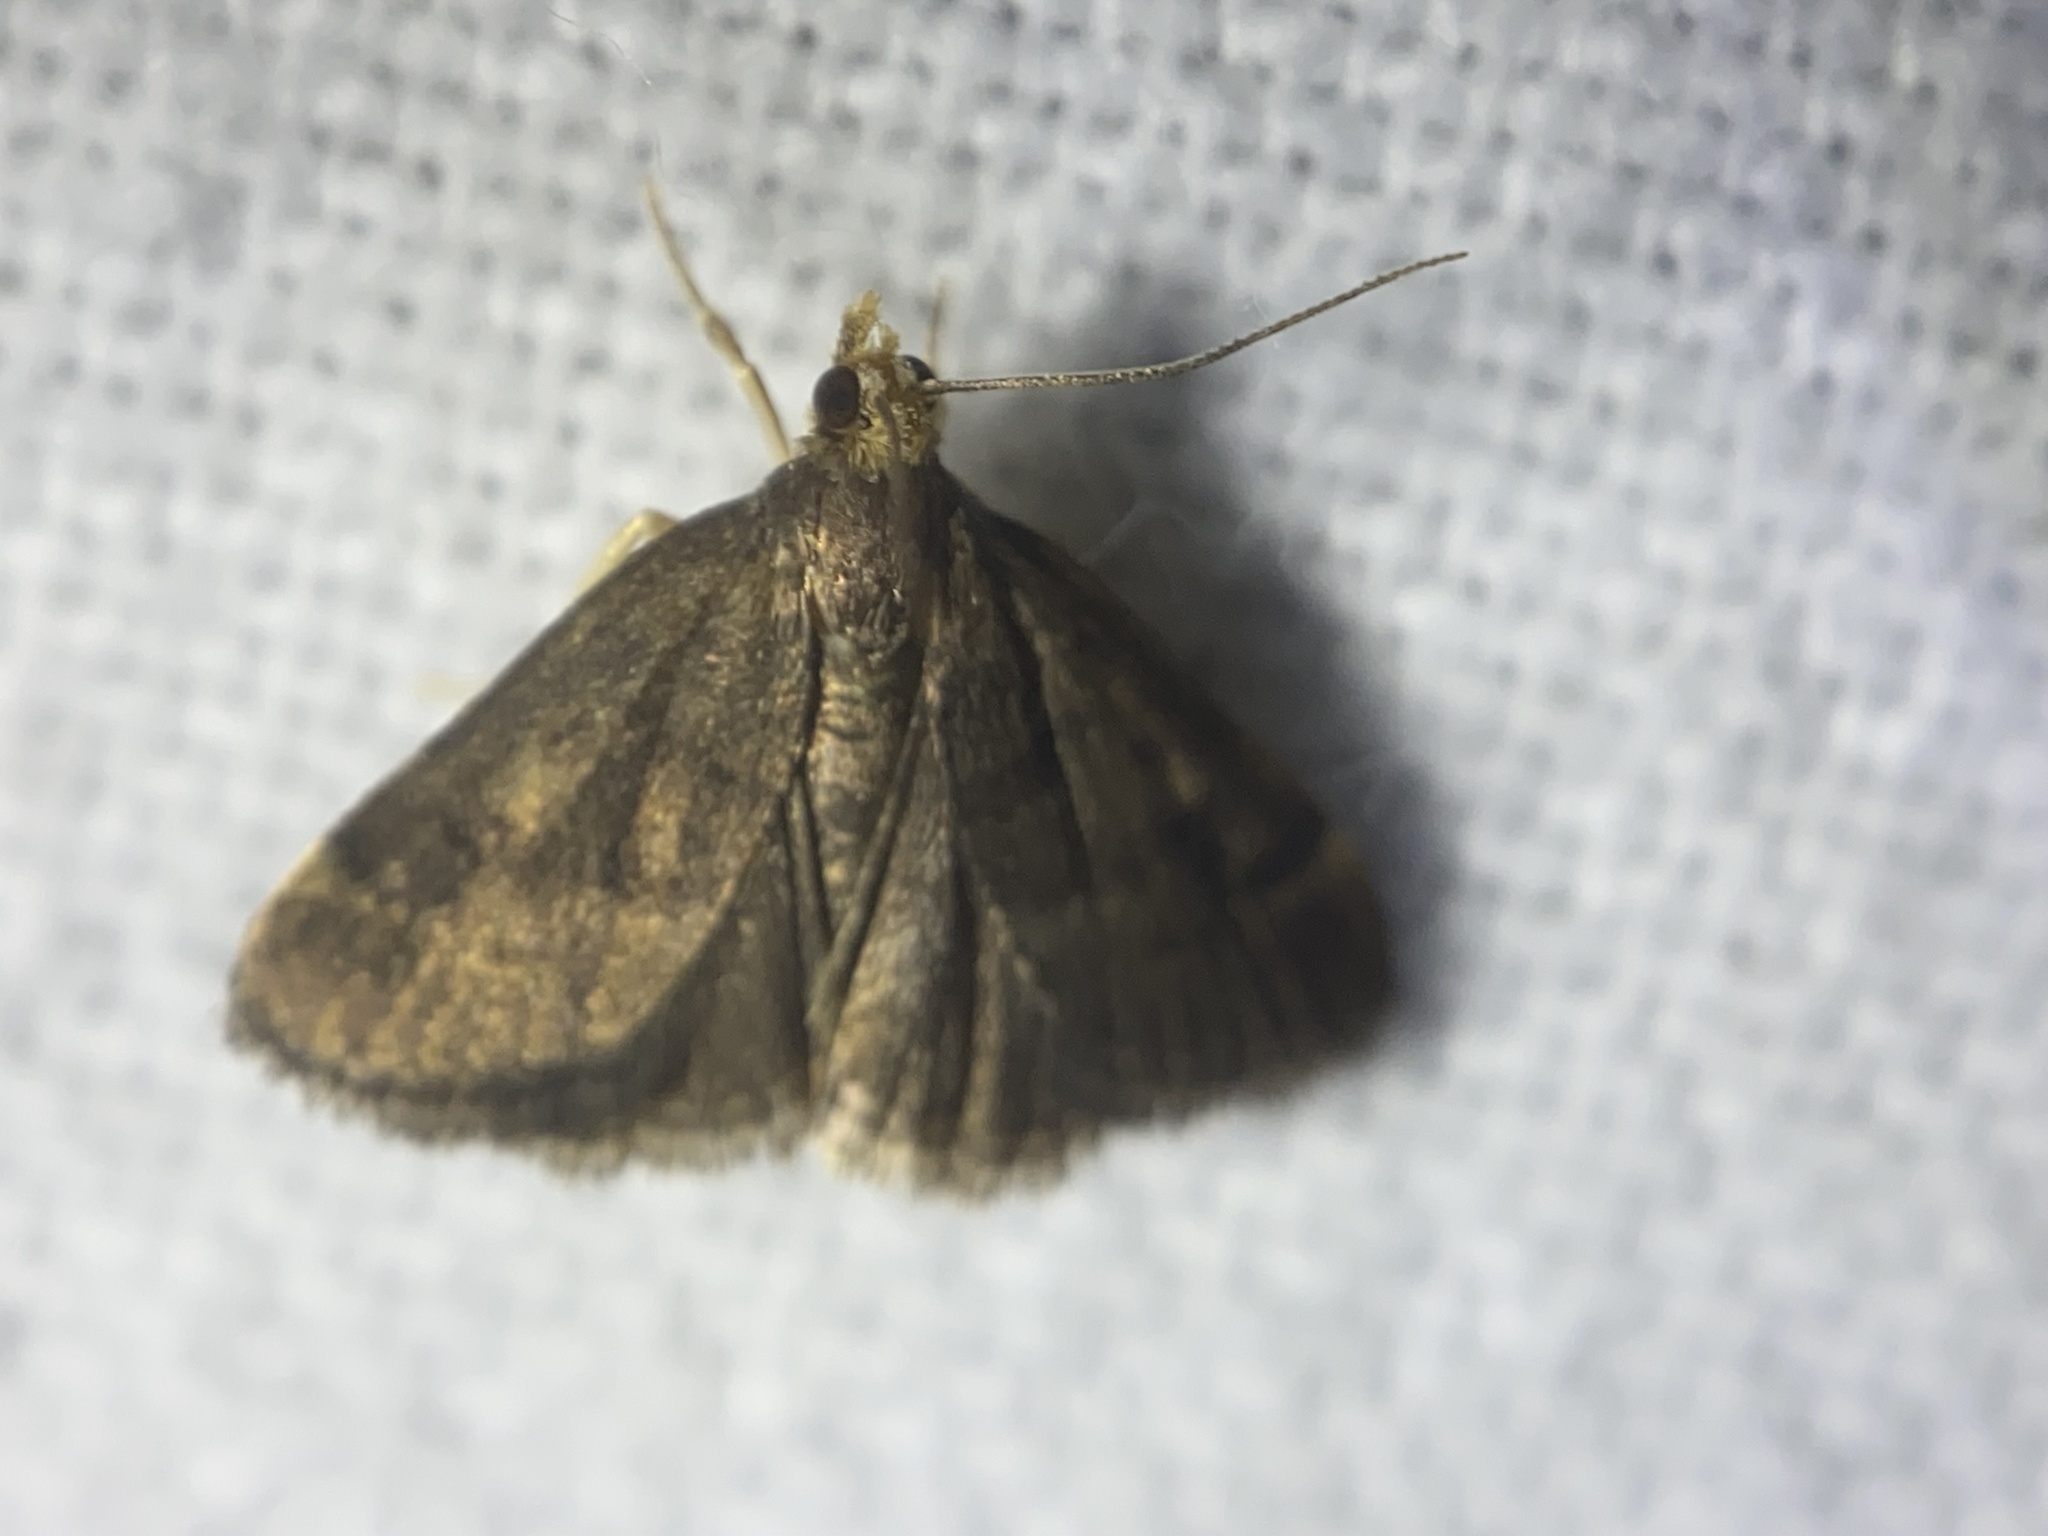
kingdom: Animalia
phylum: Arthropoda
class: Insecta
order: Lepidoptera
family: Crambidae
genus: Pyrausta
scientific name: Pyrausta merrickalis
